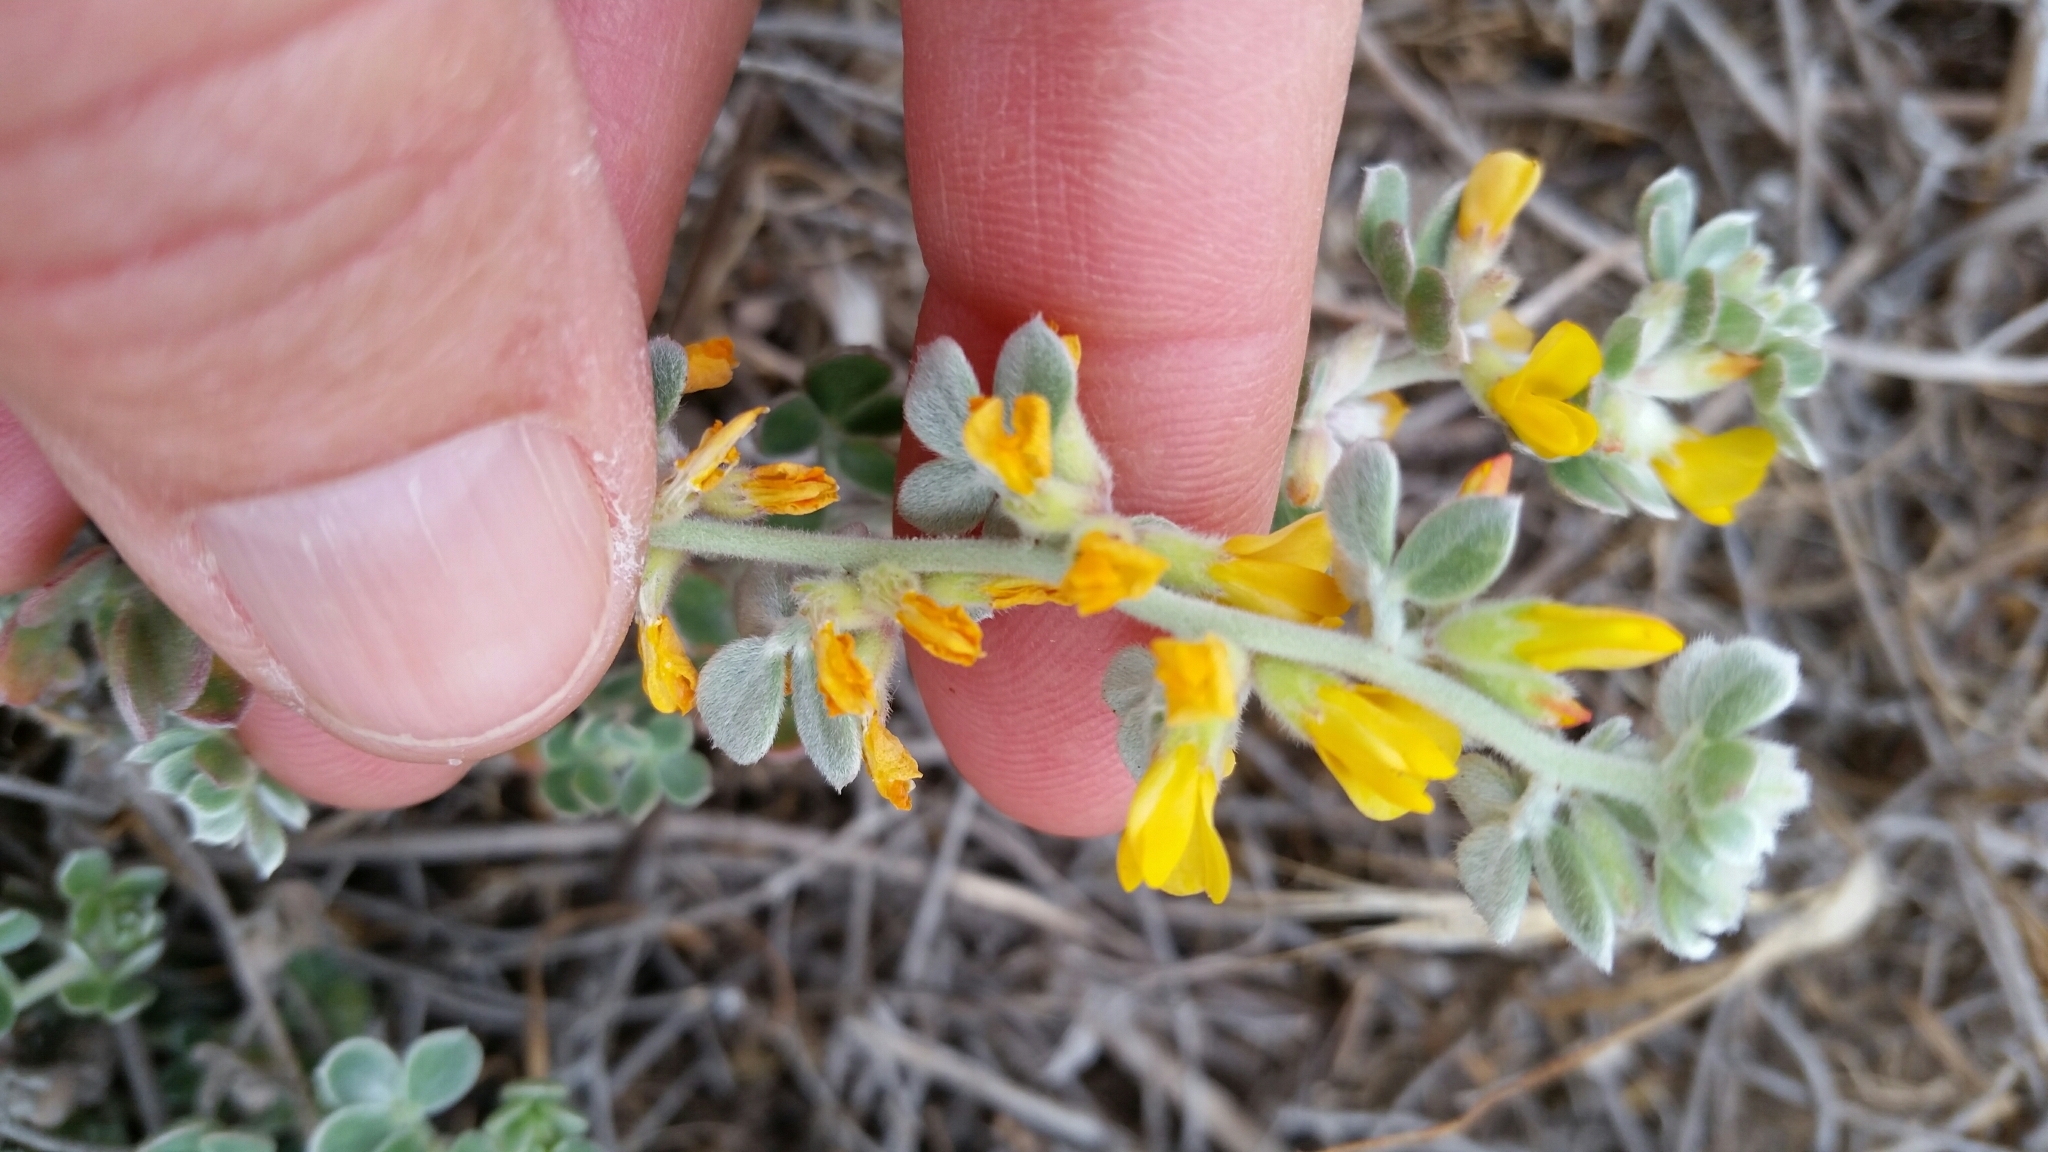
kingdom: Plantae
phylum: Tracheophyta
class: Magnoliopsida
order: Fabales
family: Fabaceae
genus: Acmispon
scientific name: Acmispon argophyllus
